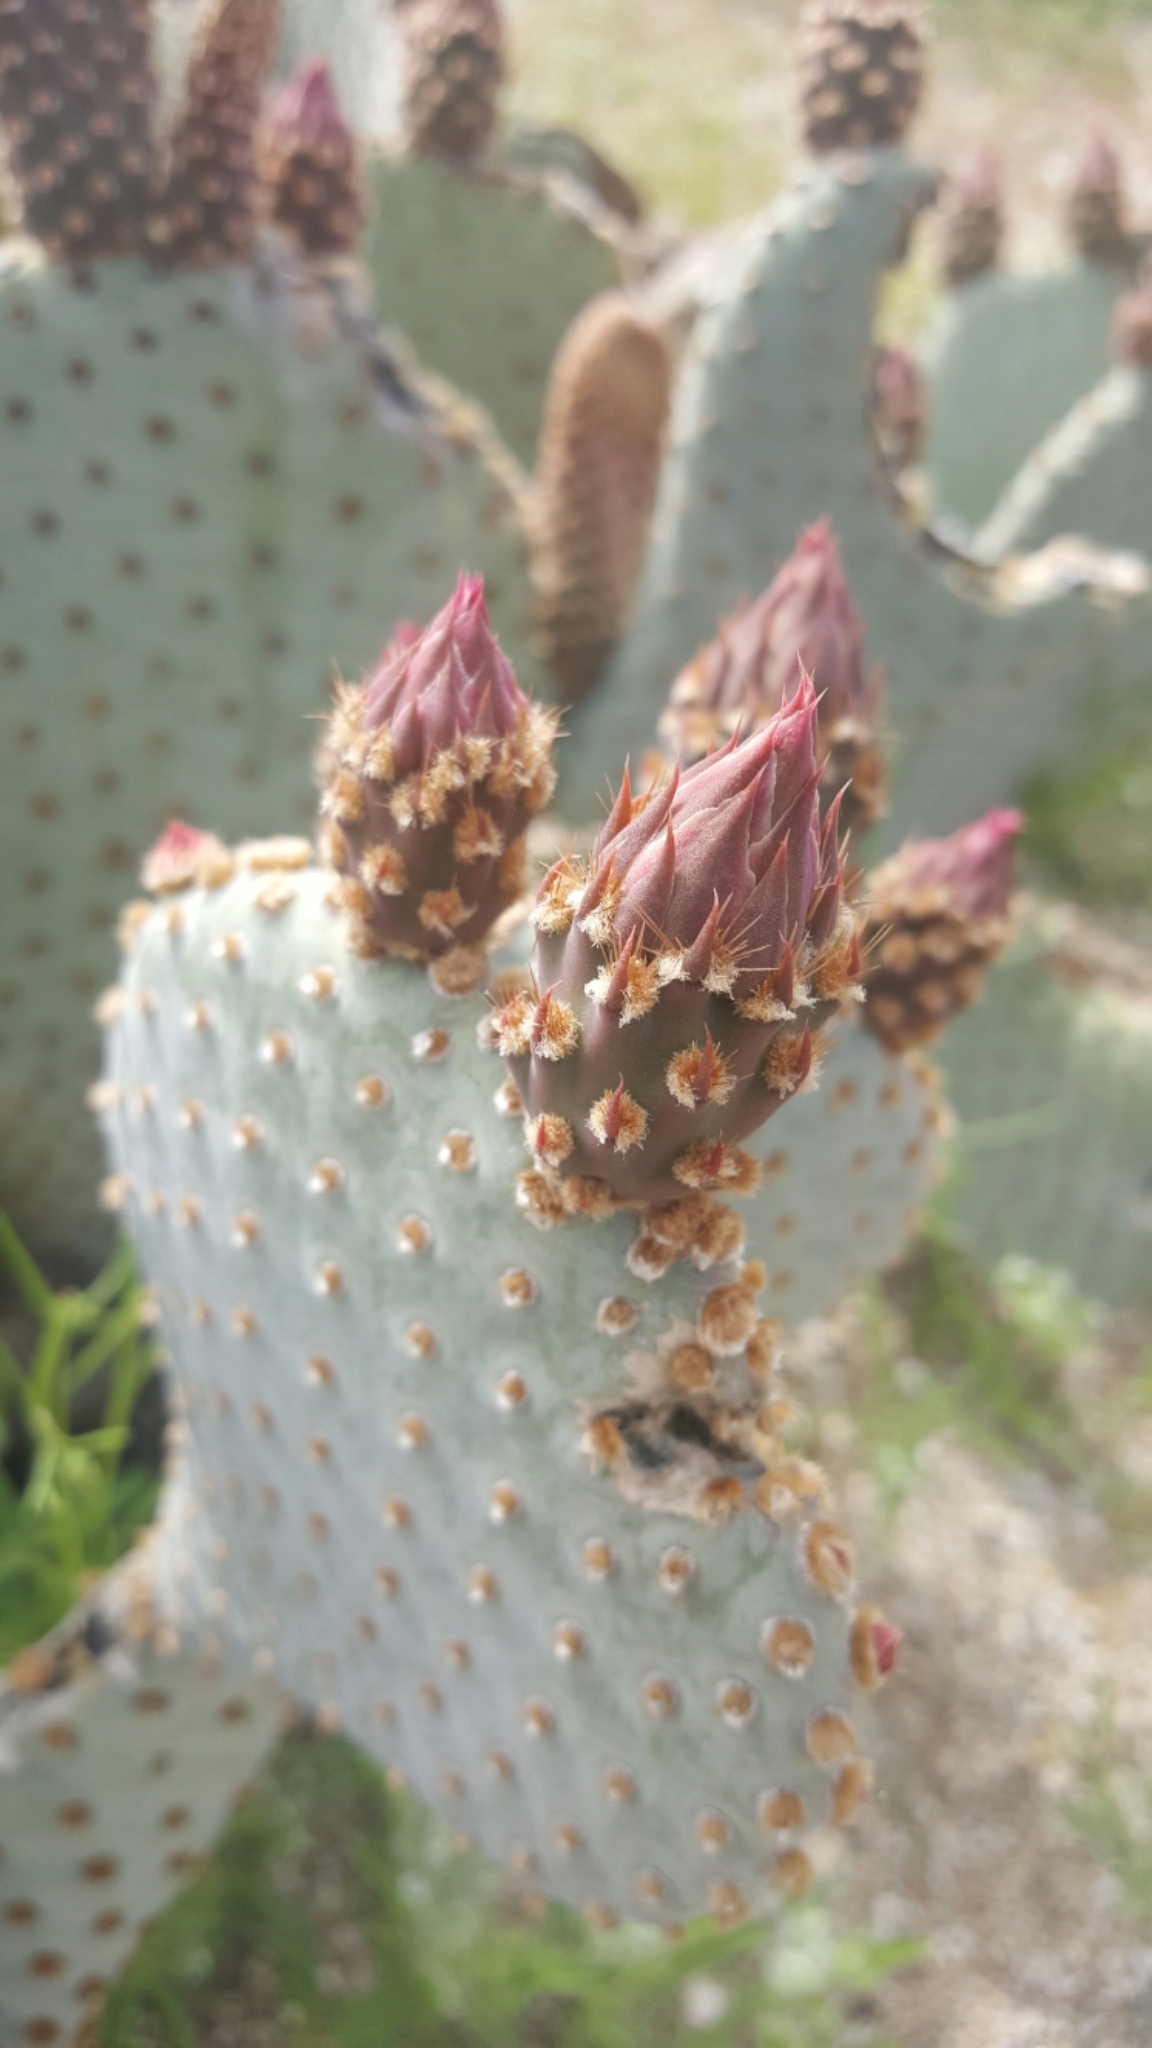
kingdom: Plantae
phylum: Tracheophyta
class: Magnoliopsida
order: Caryophyllales
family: Cactaceae
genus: Opuntia
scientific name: Opuntia basilaris
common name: Beavertail prickly-pear
